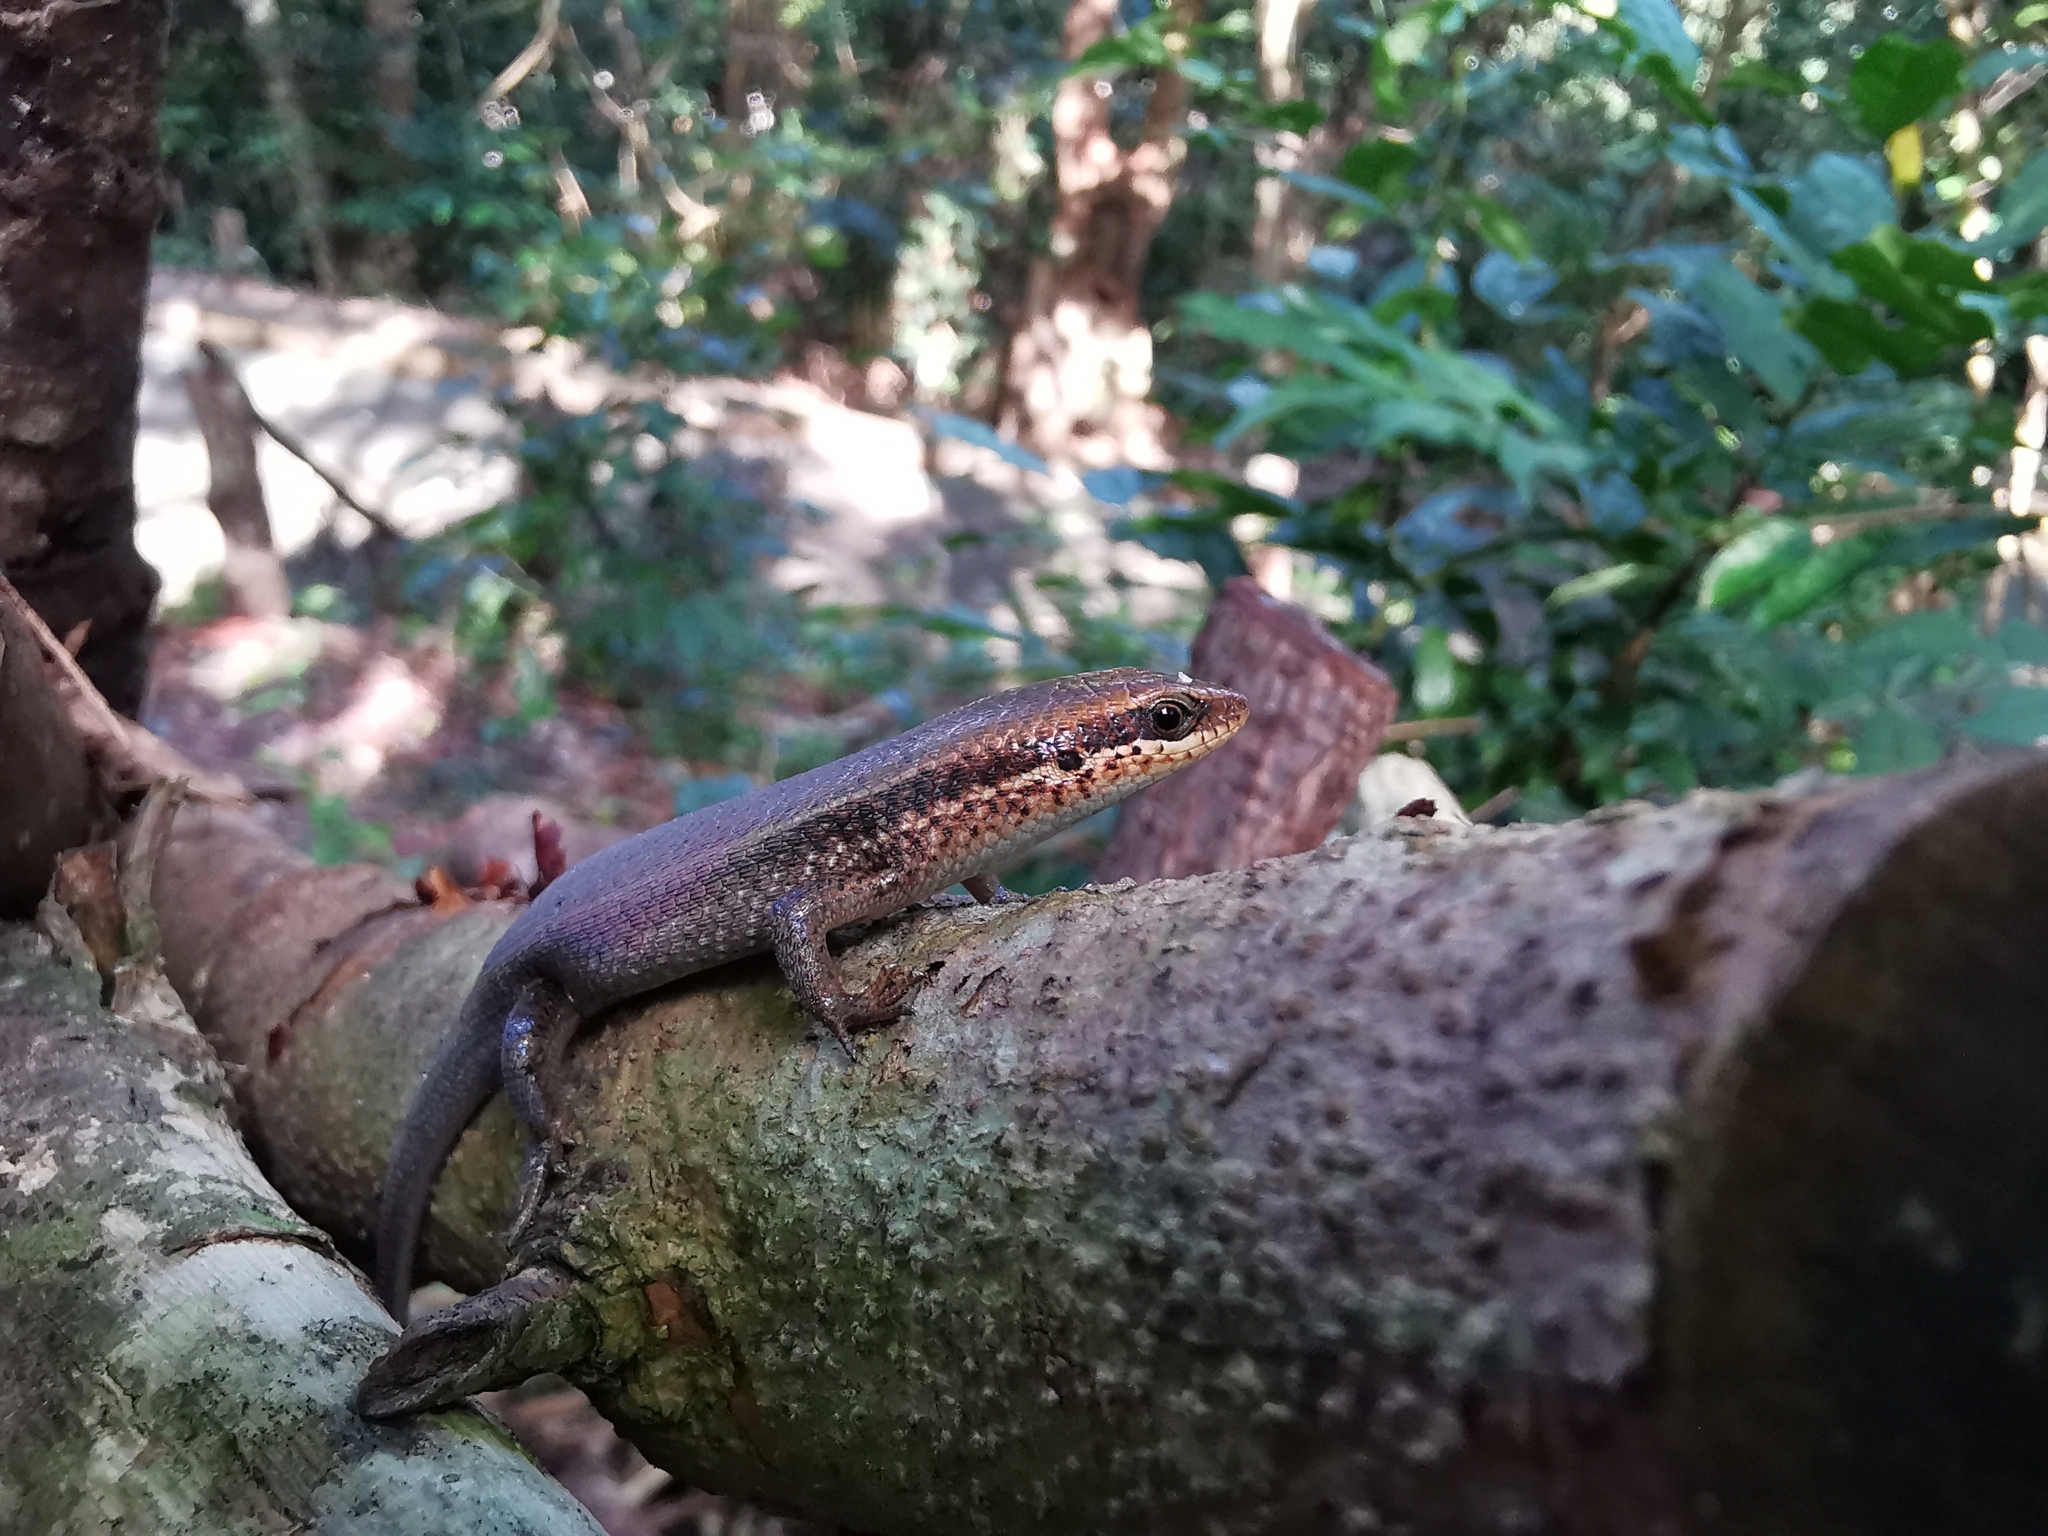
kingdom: Animalia
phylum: Chordata
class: Squamata
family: Scincidae
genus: Eutropis
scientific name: Eutropis macularia
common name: Bronze mabuya
